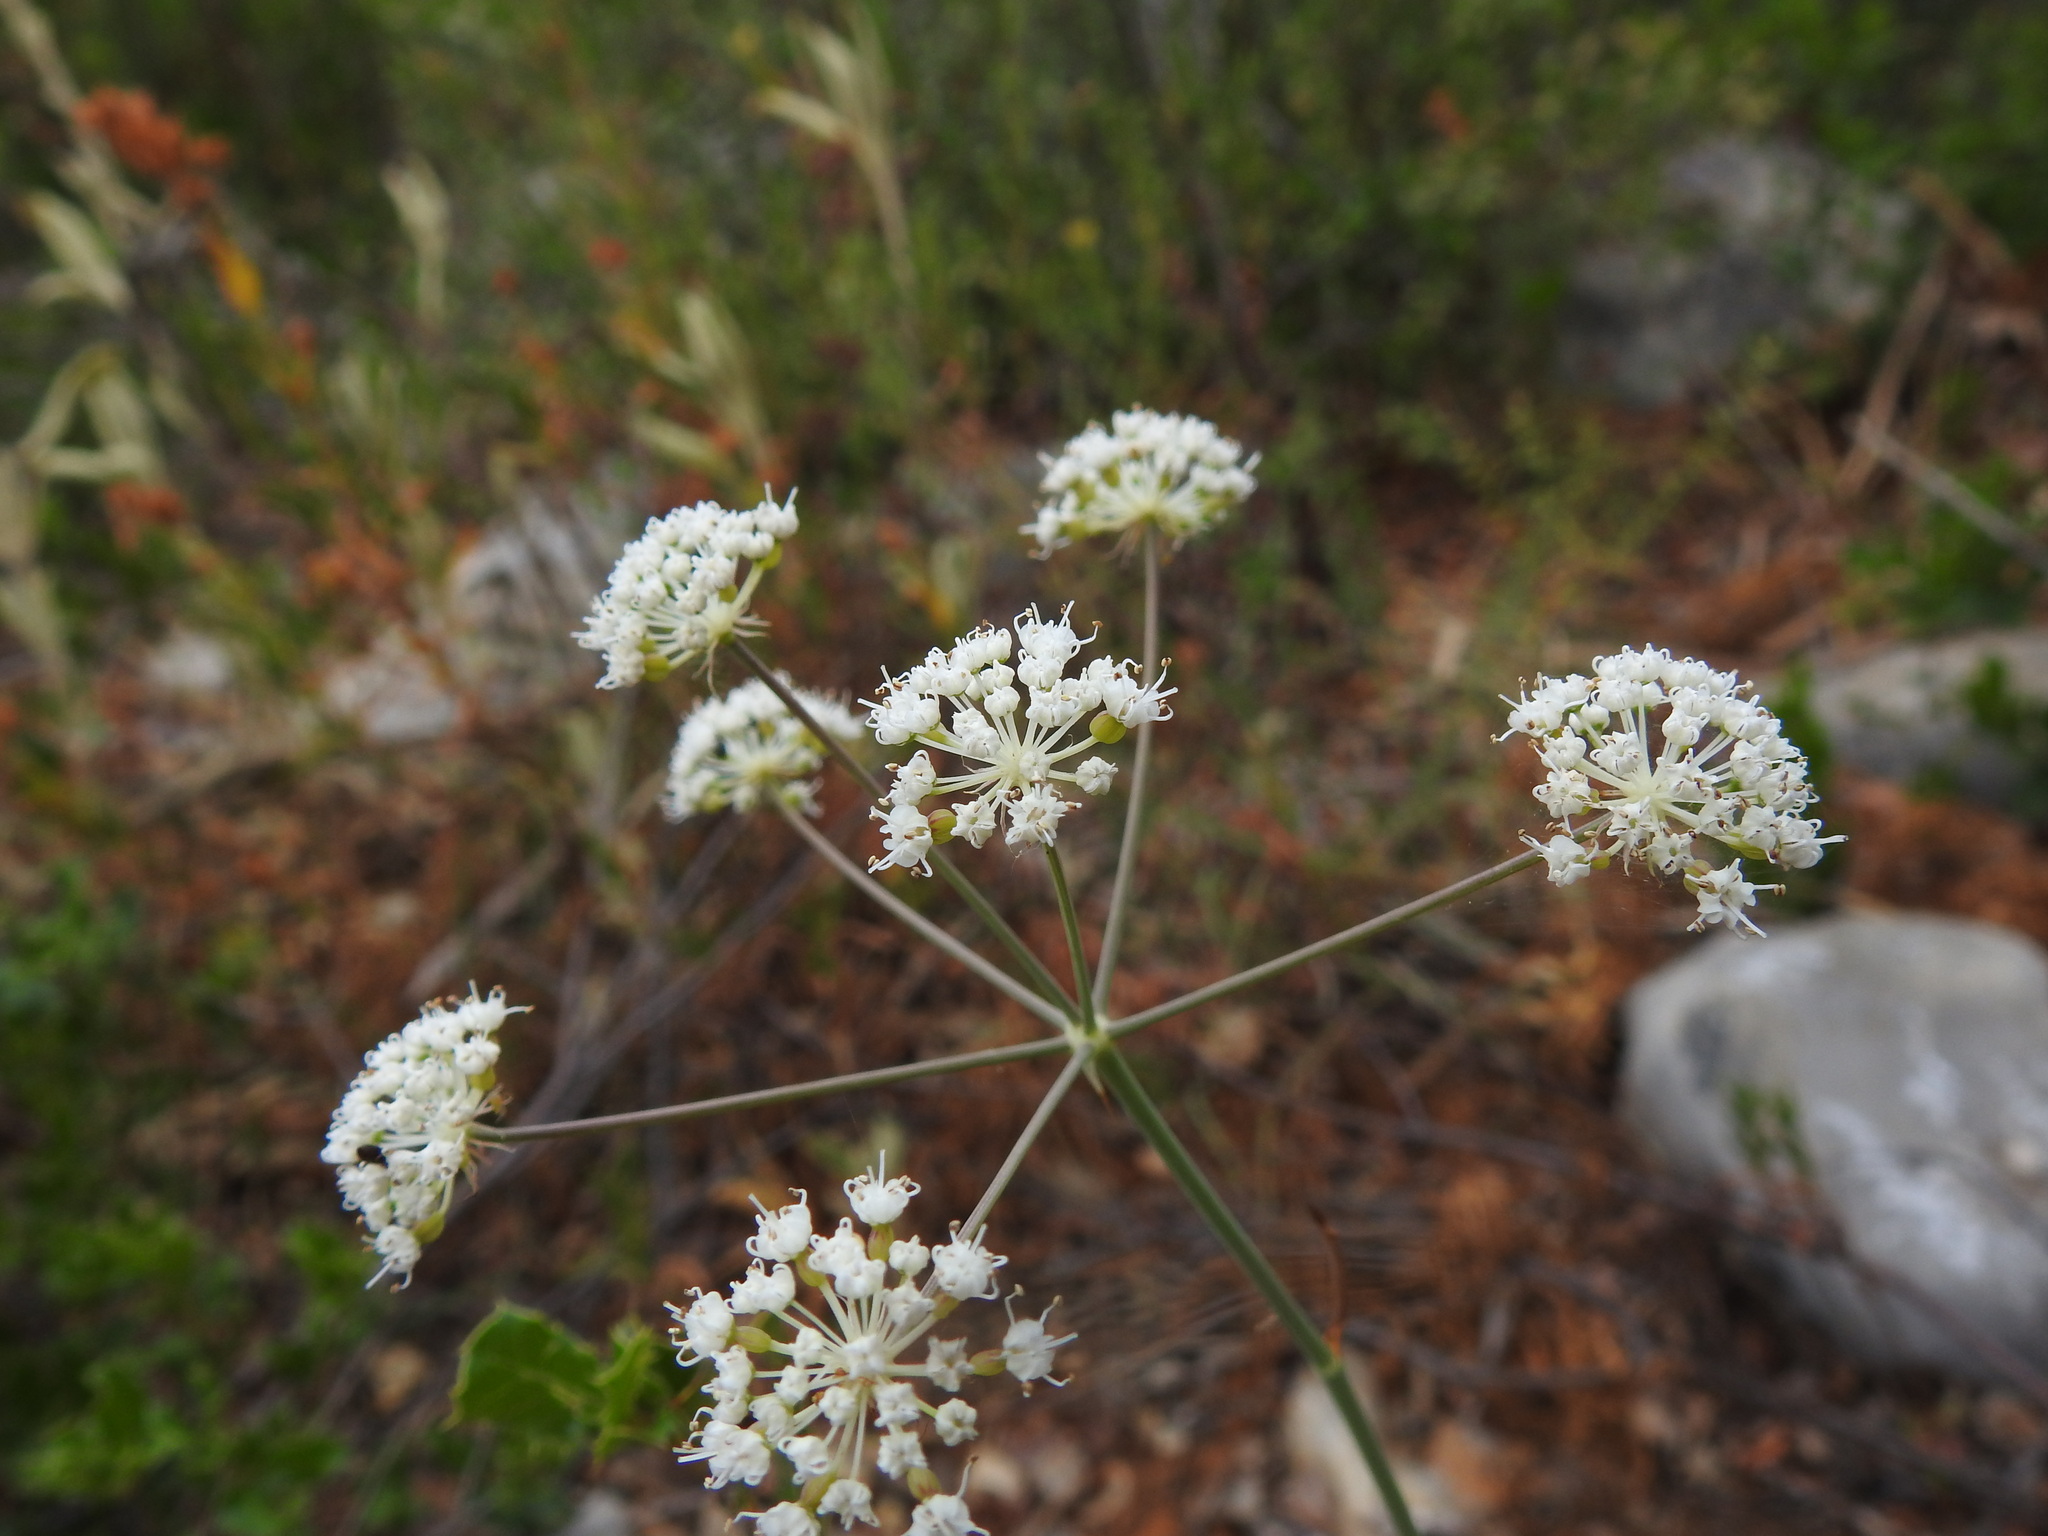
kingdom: Plantae
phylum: Tracheophyta
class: Magnoliopsida
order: Apiales
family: Apiaceae
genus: Thapsia
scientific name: Thapsia gummifera
